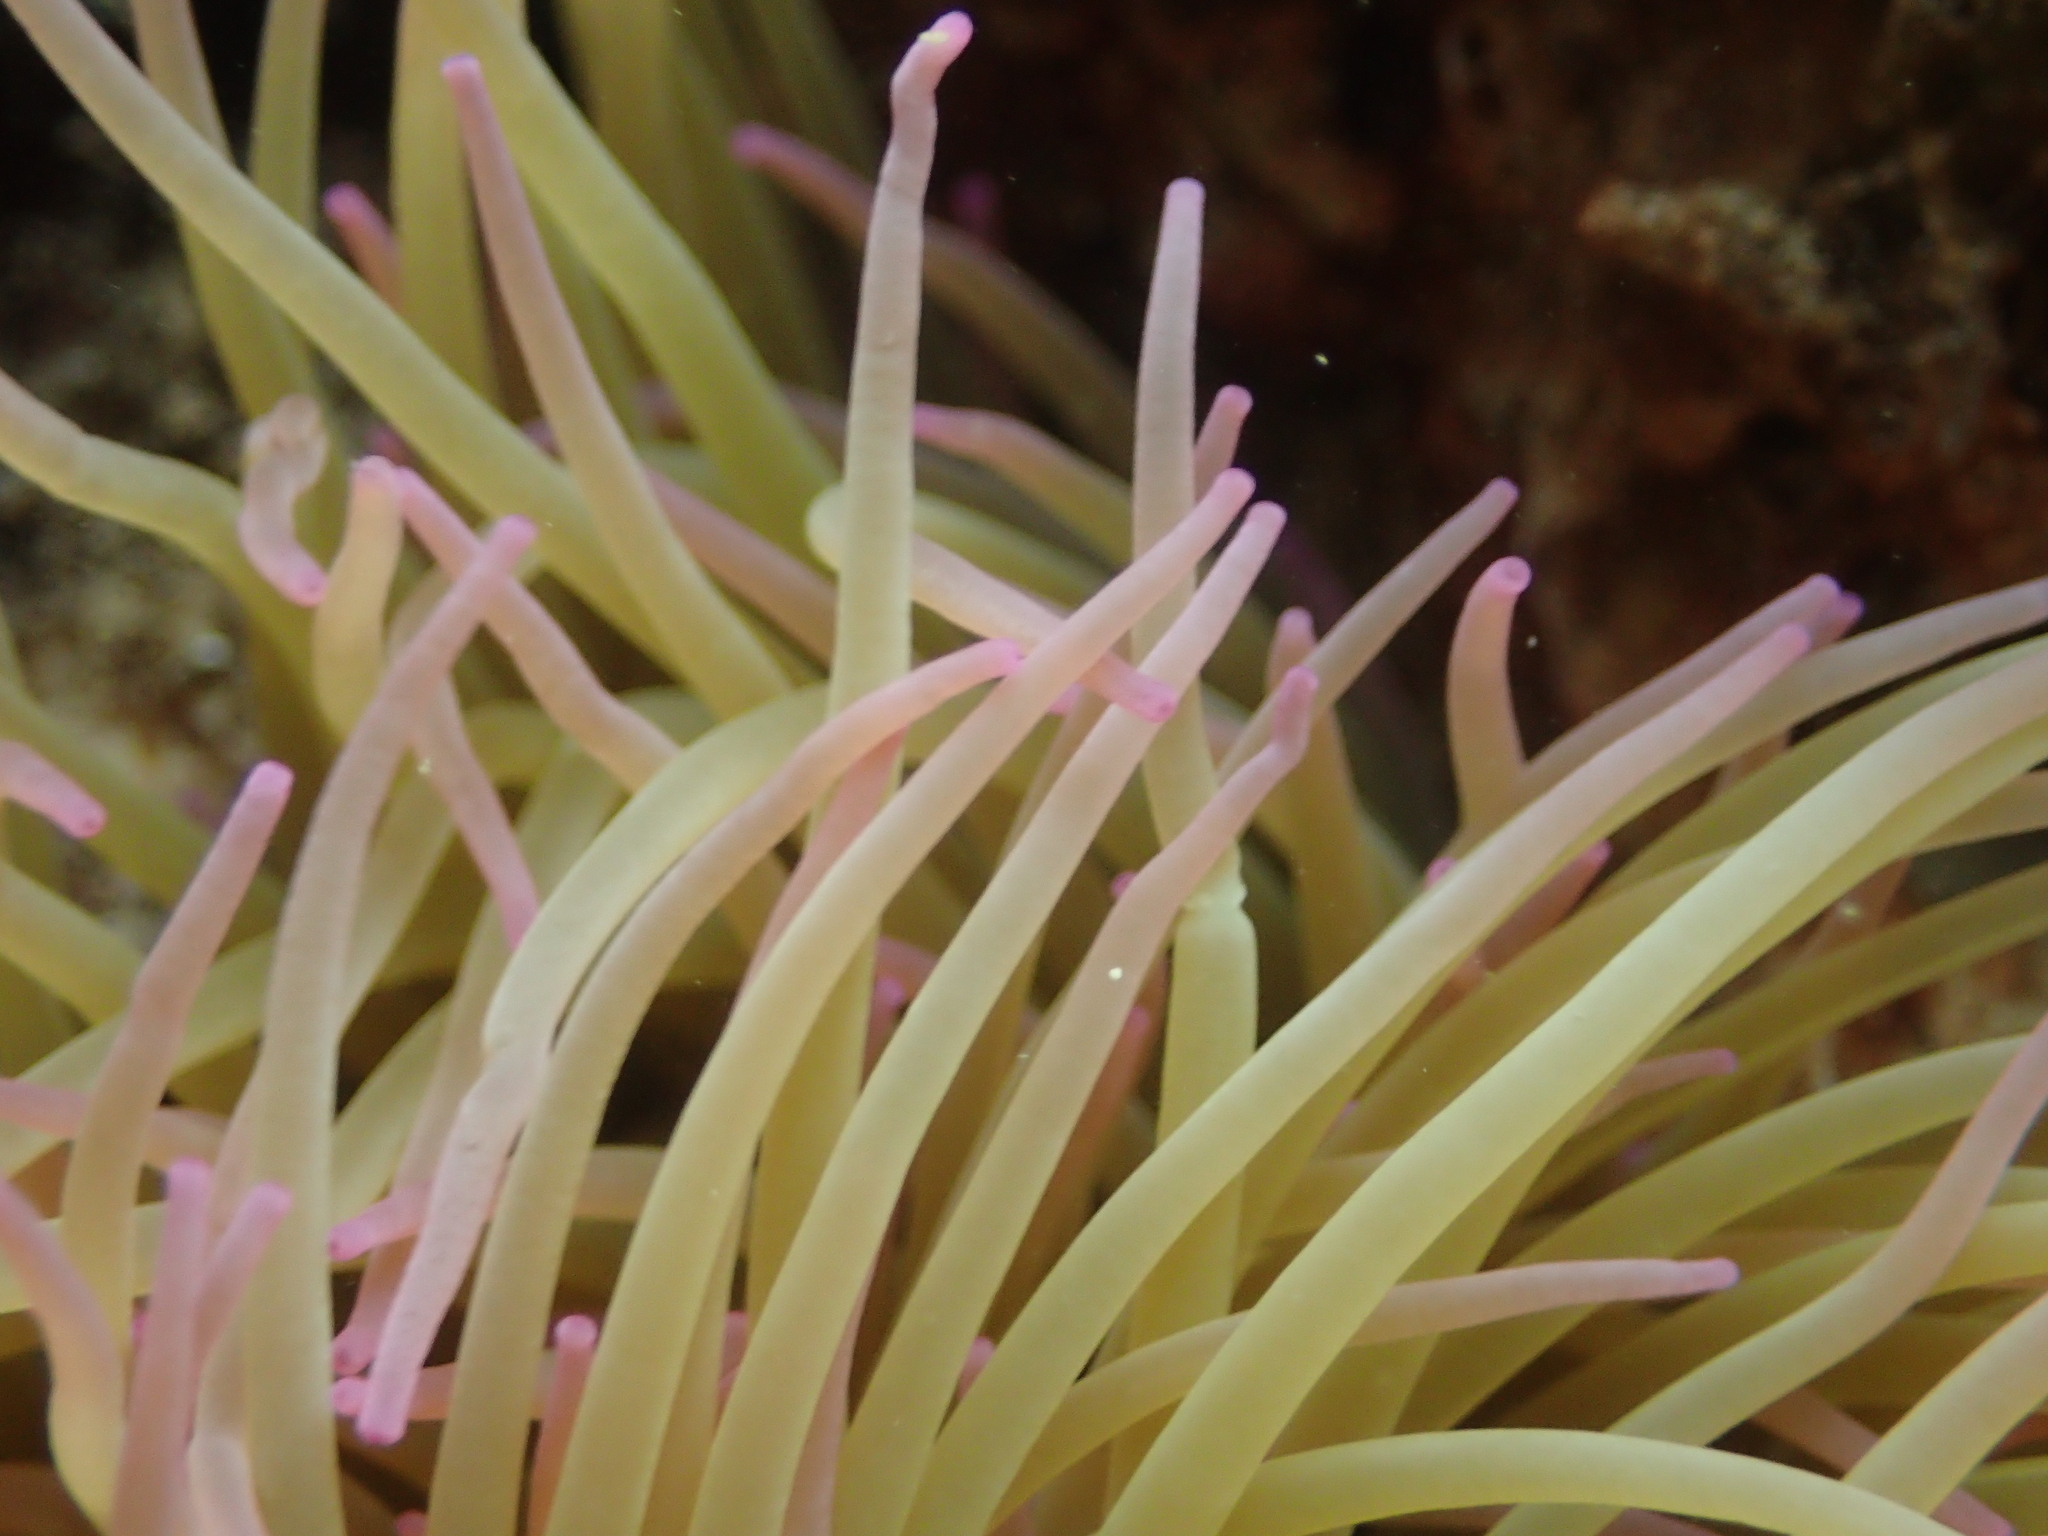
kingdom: Animalia
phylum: Cnidaria
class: Anthozoa
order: Actiniaria
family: Actiniidae
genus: Anemonia
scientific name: Anemonia viridis
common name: Snakelocks anemone
